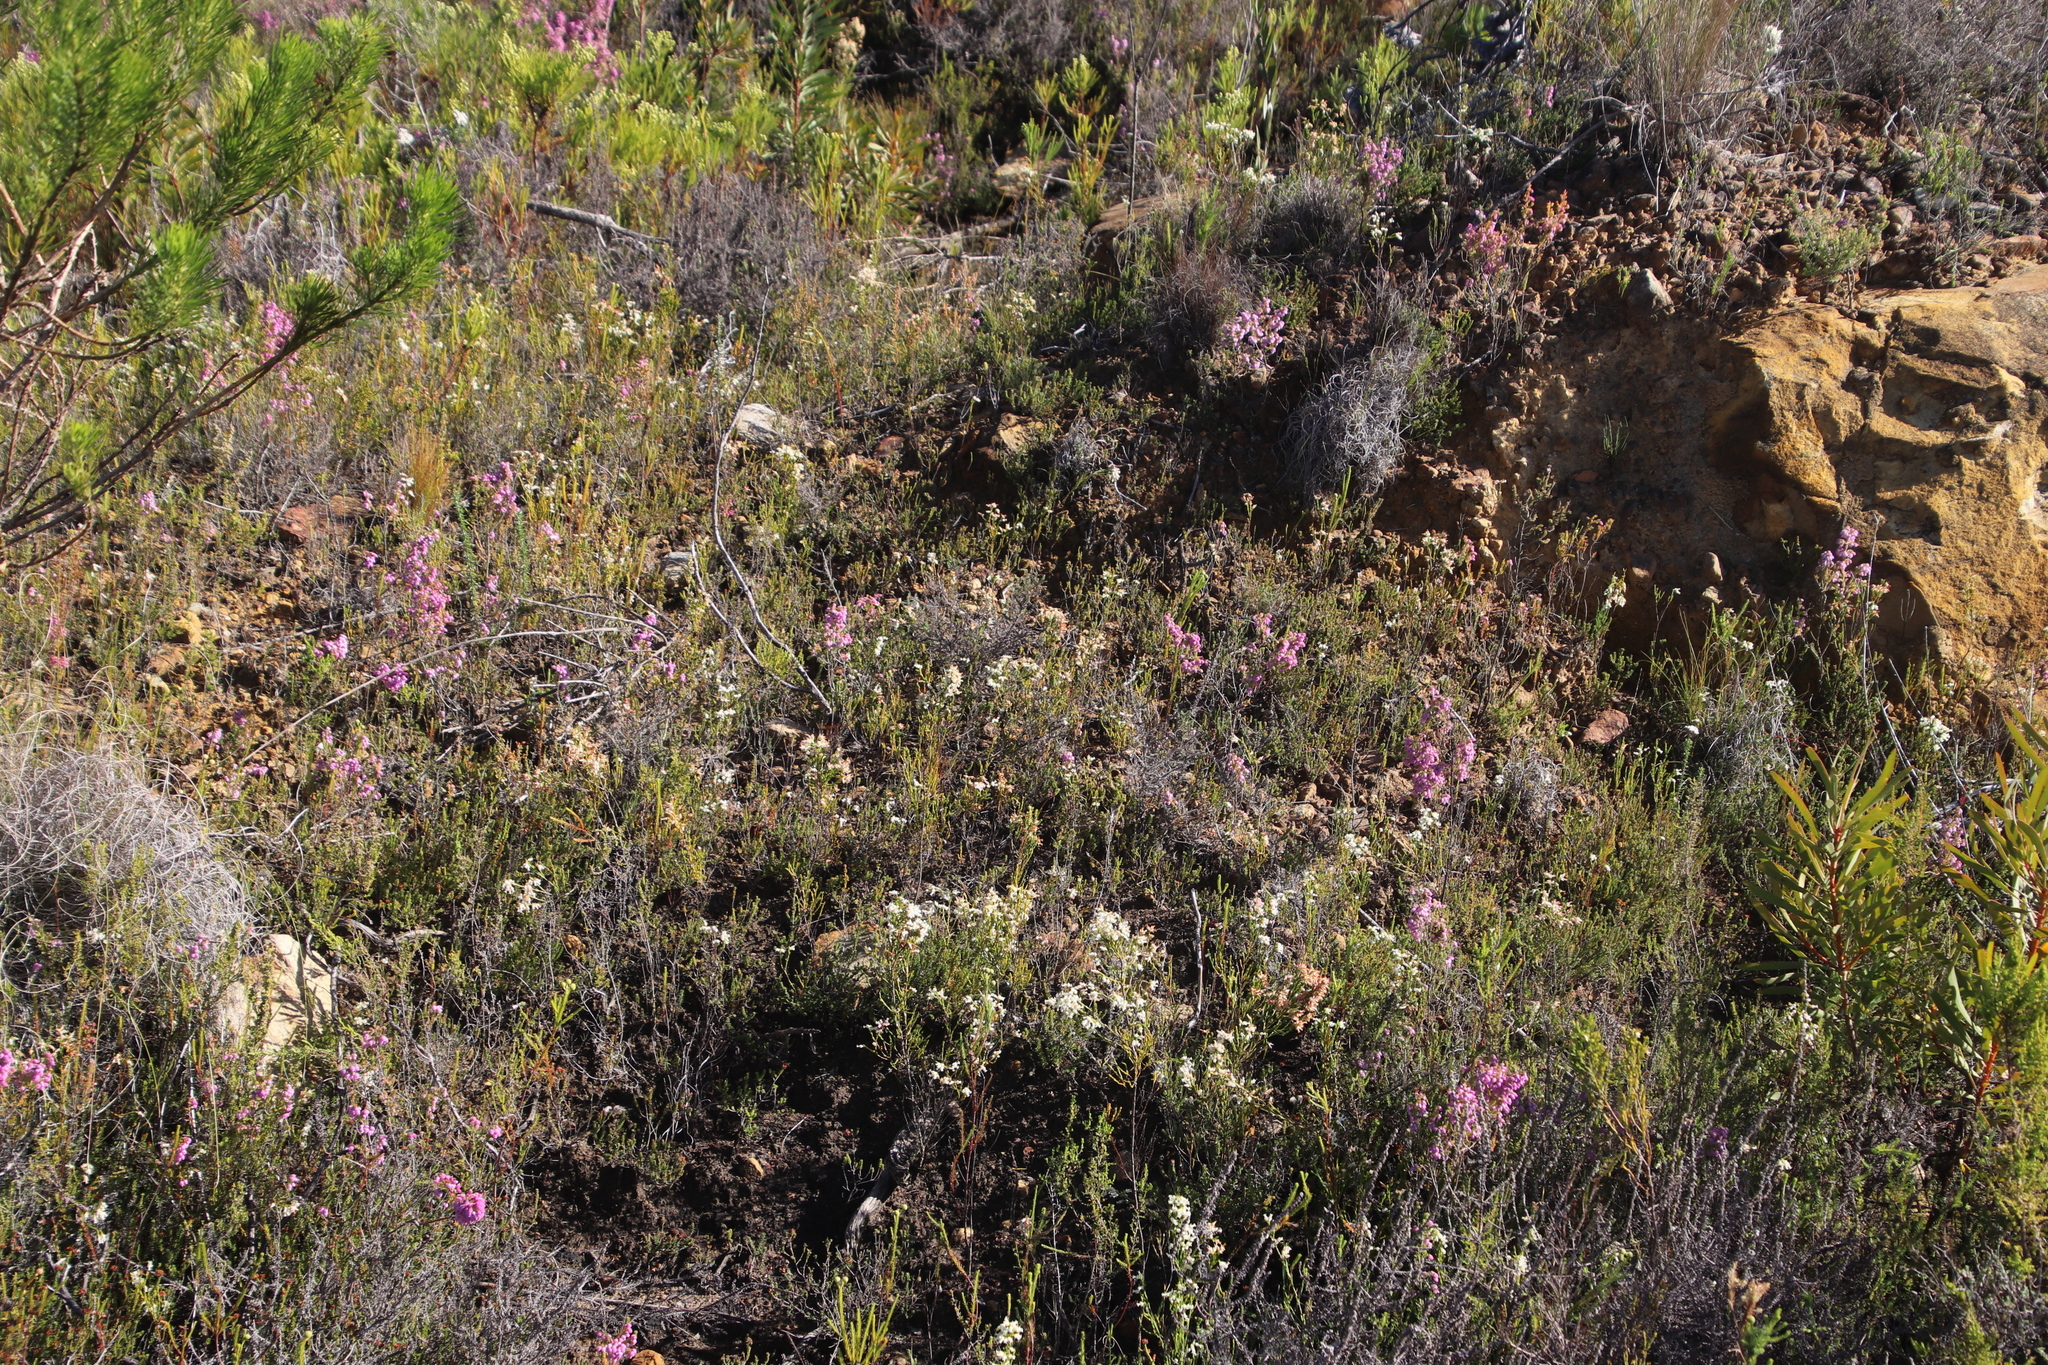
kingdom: Plantae
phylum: Tracheophyta
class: Magnoliopsida
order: Ericales
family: Ericaceae
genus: Erica
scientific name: Erica lutea
